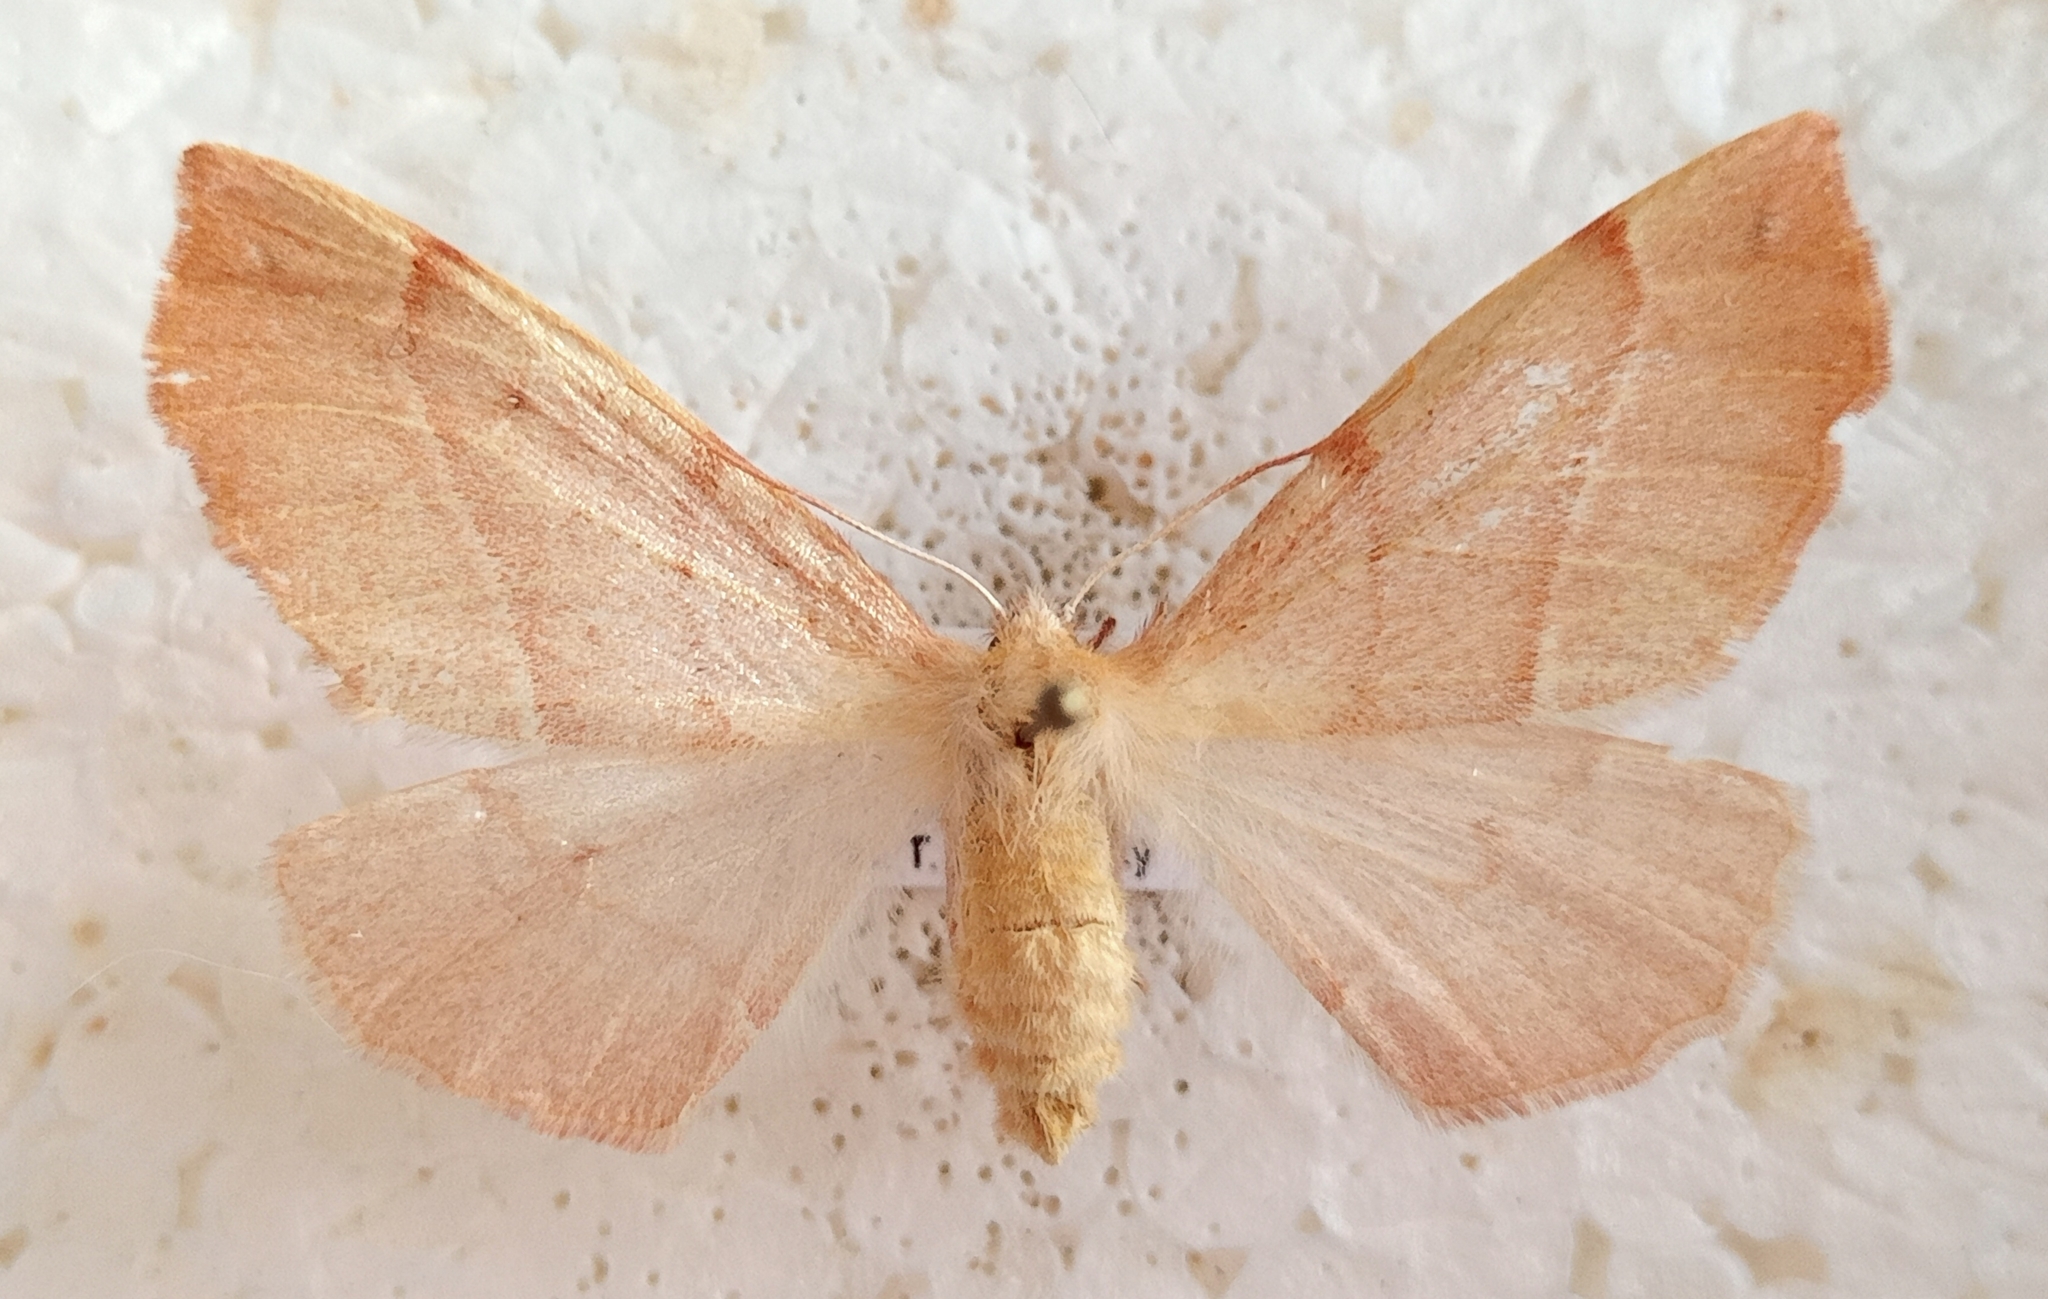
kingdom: Animalia
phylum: Arthropoda
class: Insecta
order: Lepidoptera
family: Geometridae
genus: Colotois
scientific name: Colotois pennaria
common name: Feathered thorn
